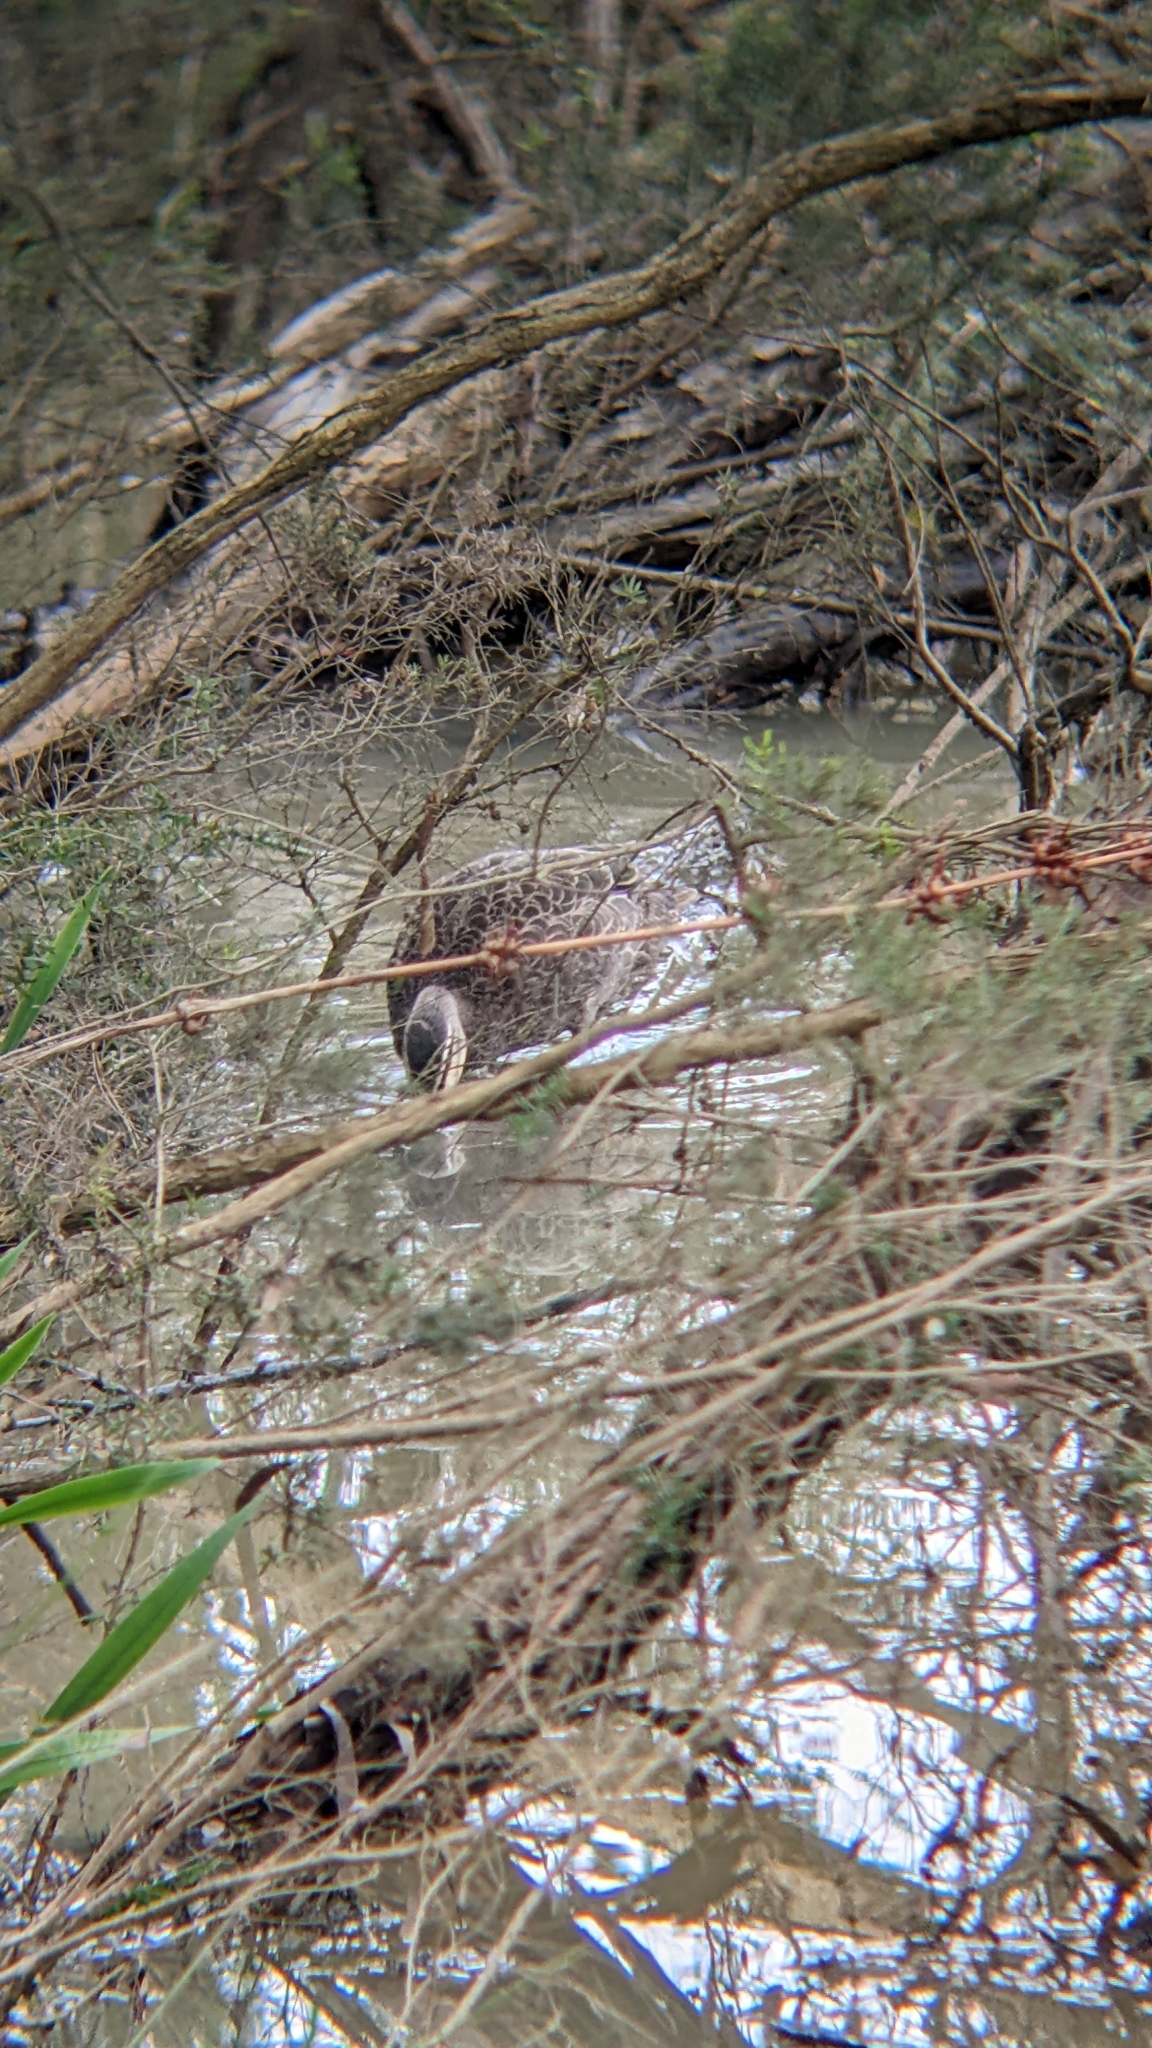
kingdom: Animalia
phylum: Chordata
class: Aves
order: Anseriformes
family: Anatidae
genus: Anas
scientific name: Anas superciliosa
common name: Pacific black duck
